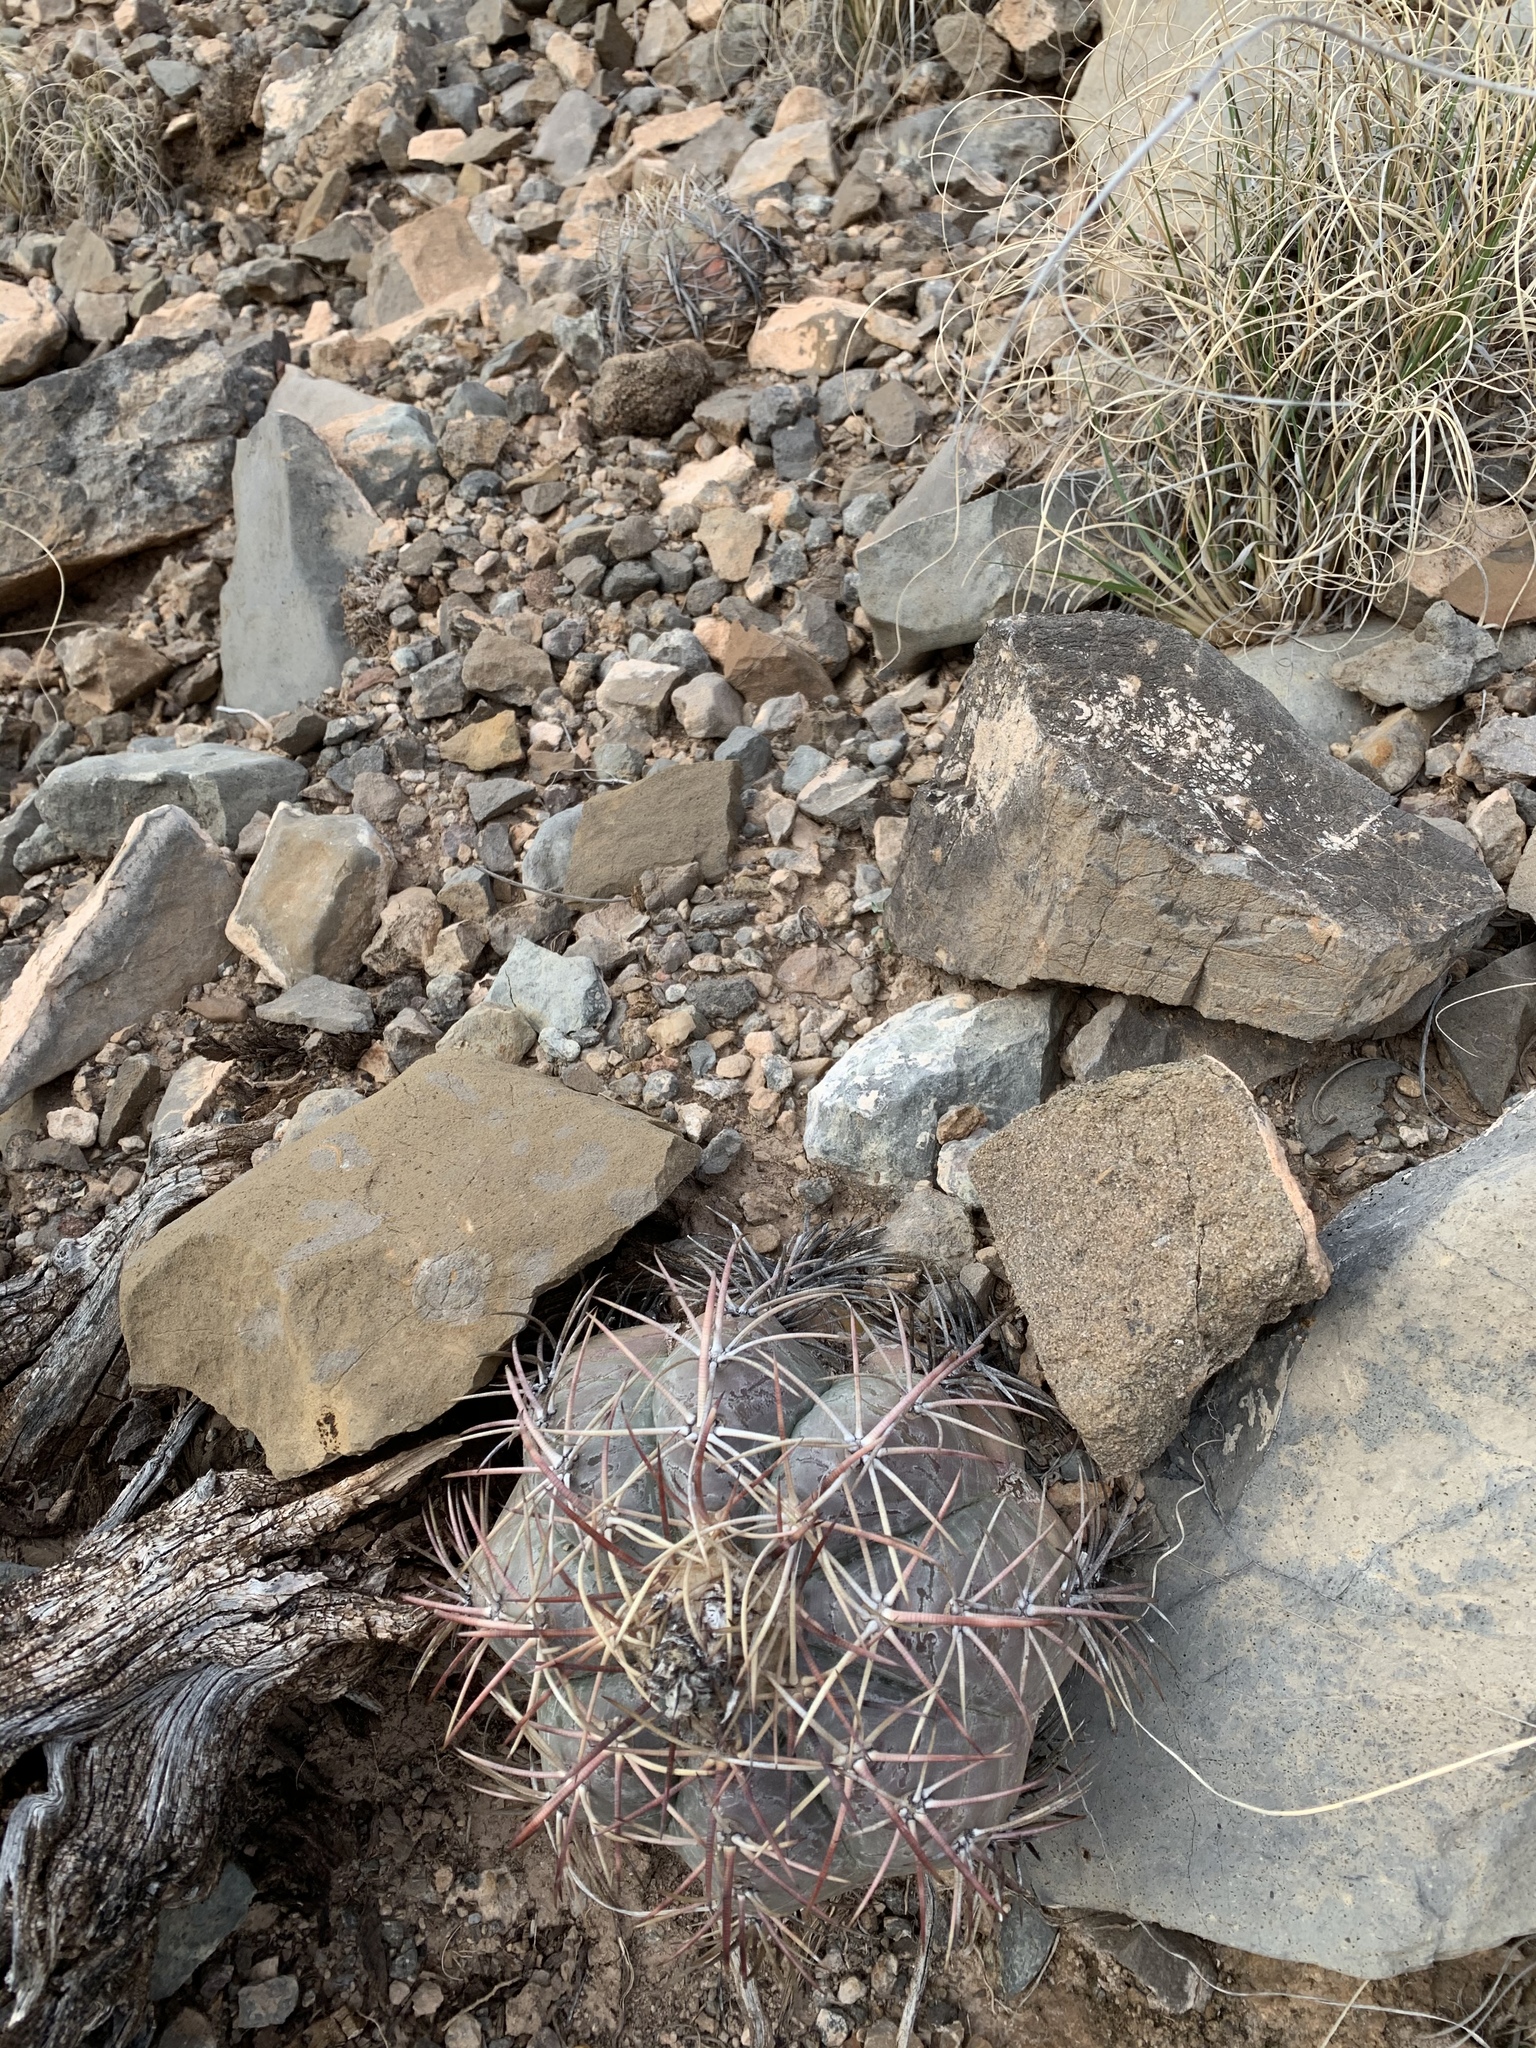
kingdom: Plantae
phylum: Tracheophyta
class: Magnoliopsida
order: Caryophyllales
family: Cactaceae
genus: Echinocactus
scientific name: Echinocactus horizonthalonius
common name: Devilshead
